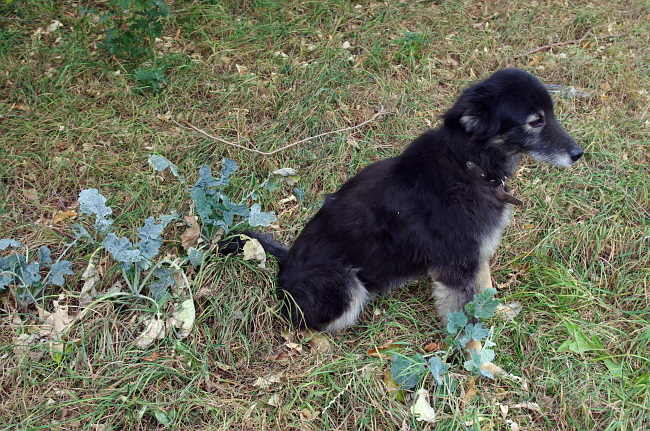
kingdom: Plantae
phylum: Tracheophyta
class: Magnoliopsida
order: Brassicales
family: Brassicaceae
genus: Brassica
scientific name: Brassica oleracea
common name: Cabbage
